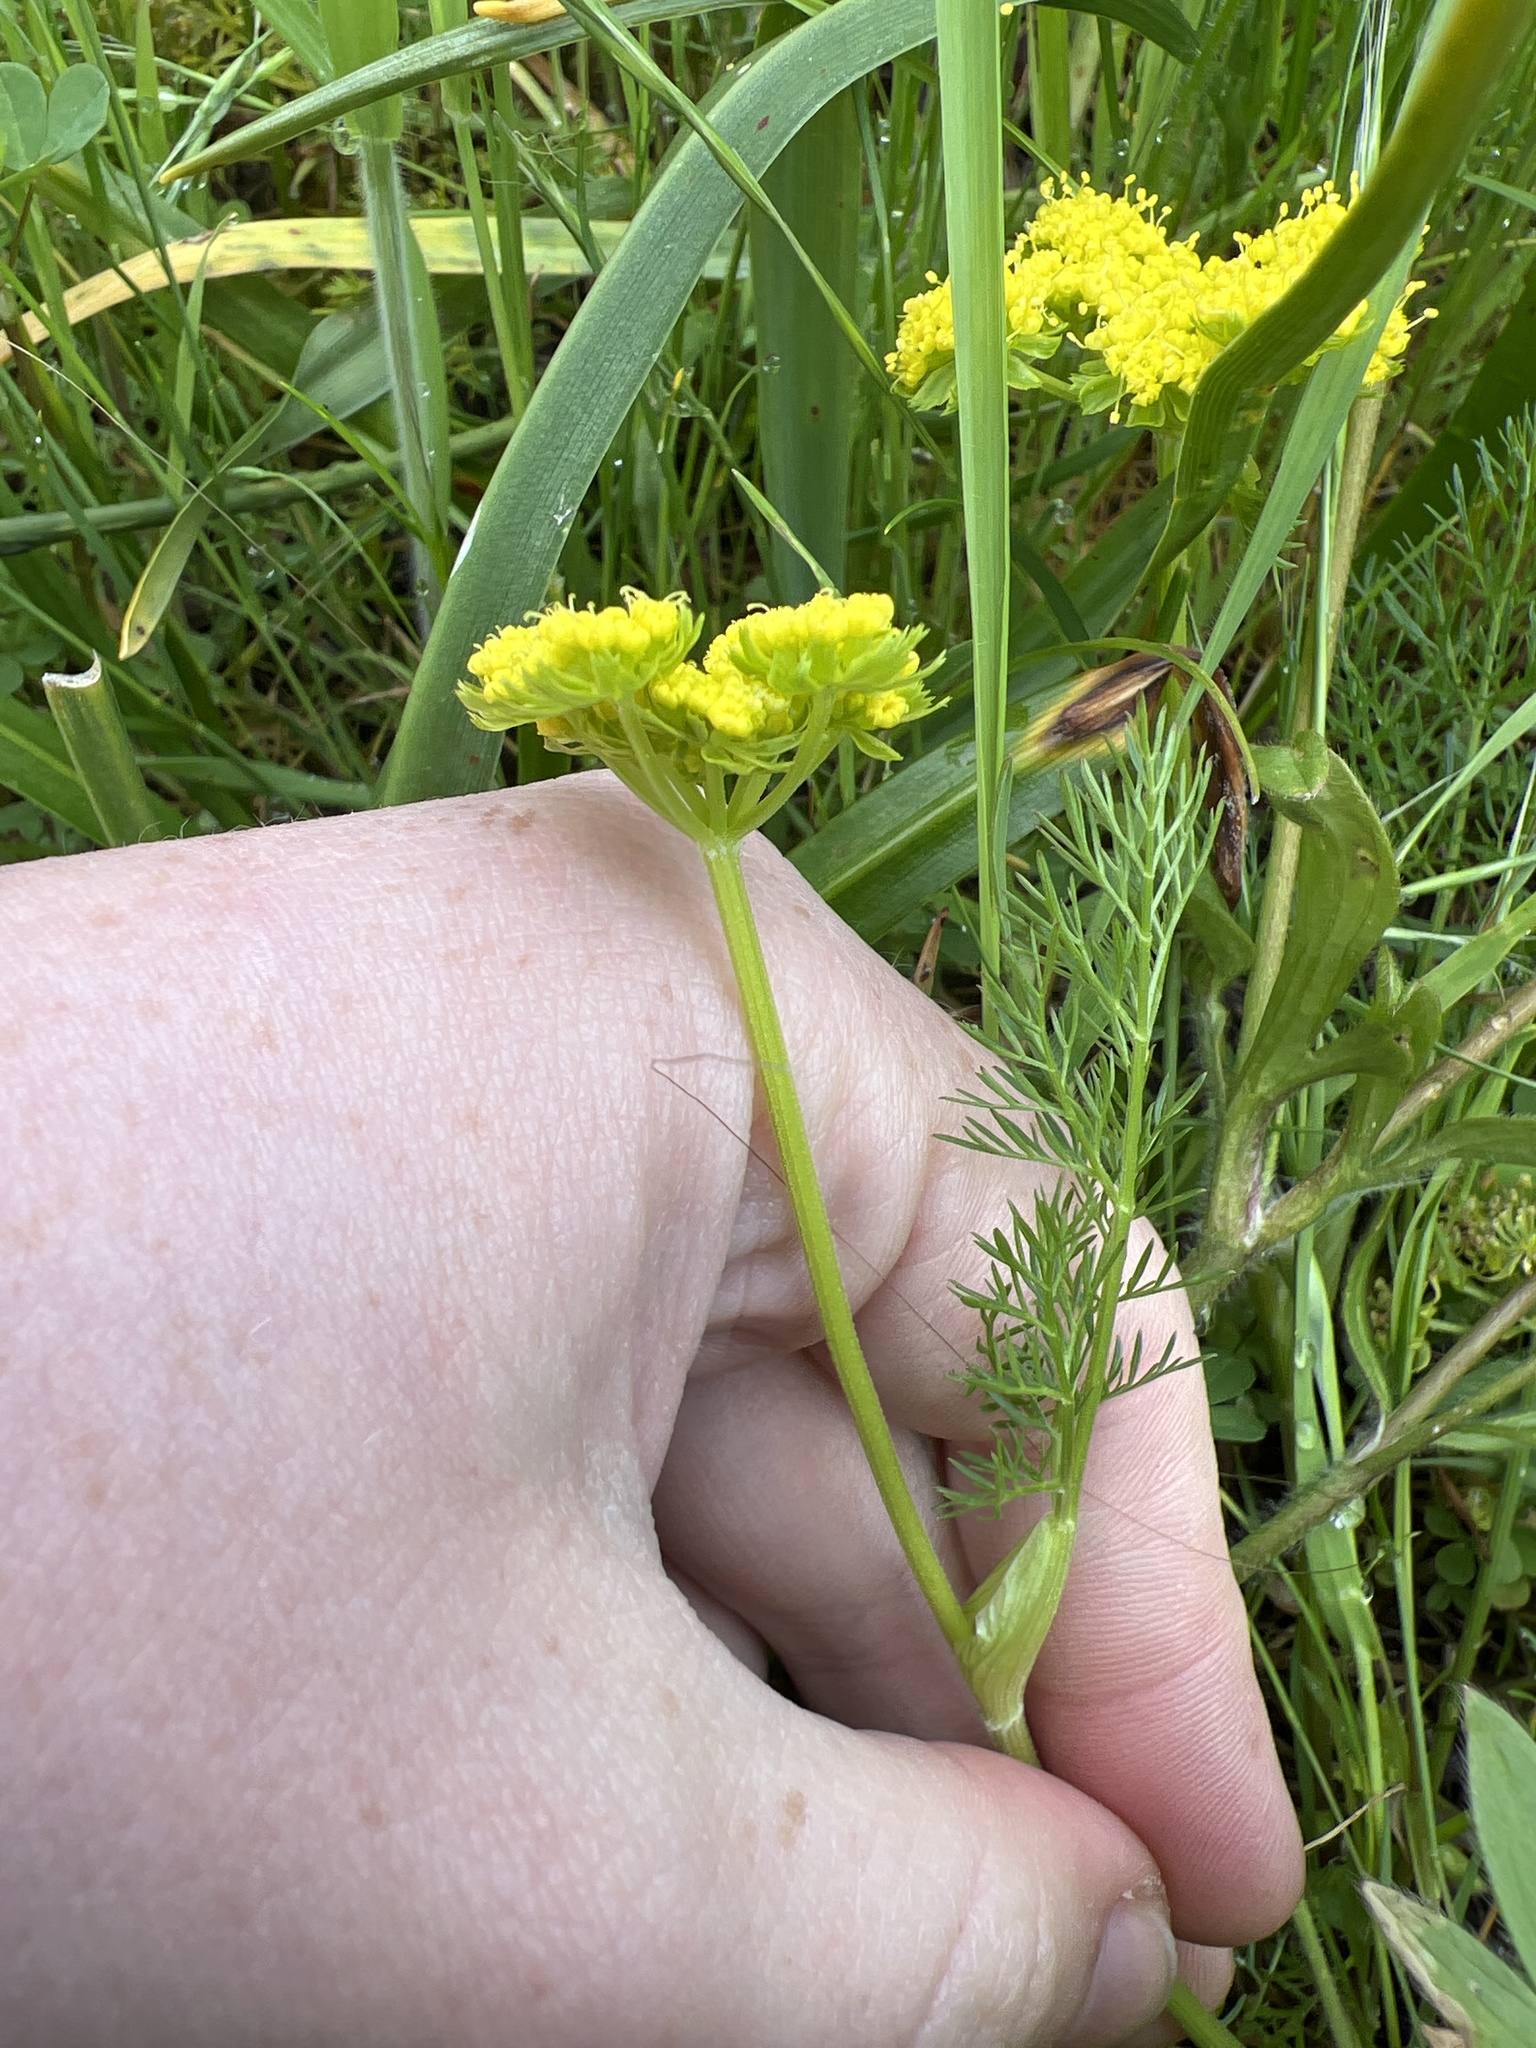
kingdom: Plantae
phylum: Tracheophyta
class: Magnoliopsida
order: Apiales
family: Apiaceae
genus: Lomatium
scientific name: Lomatium utriculatum
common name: Fine-leaf desert-parsley
